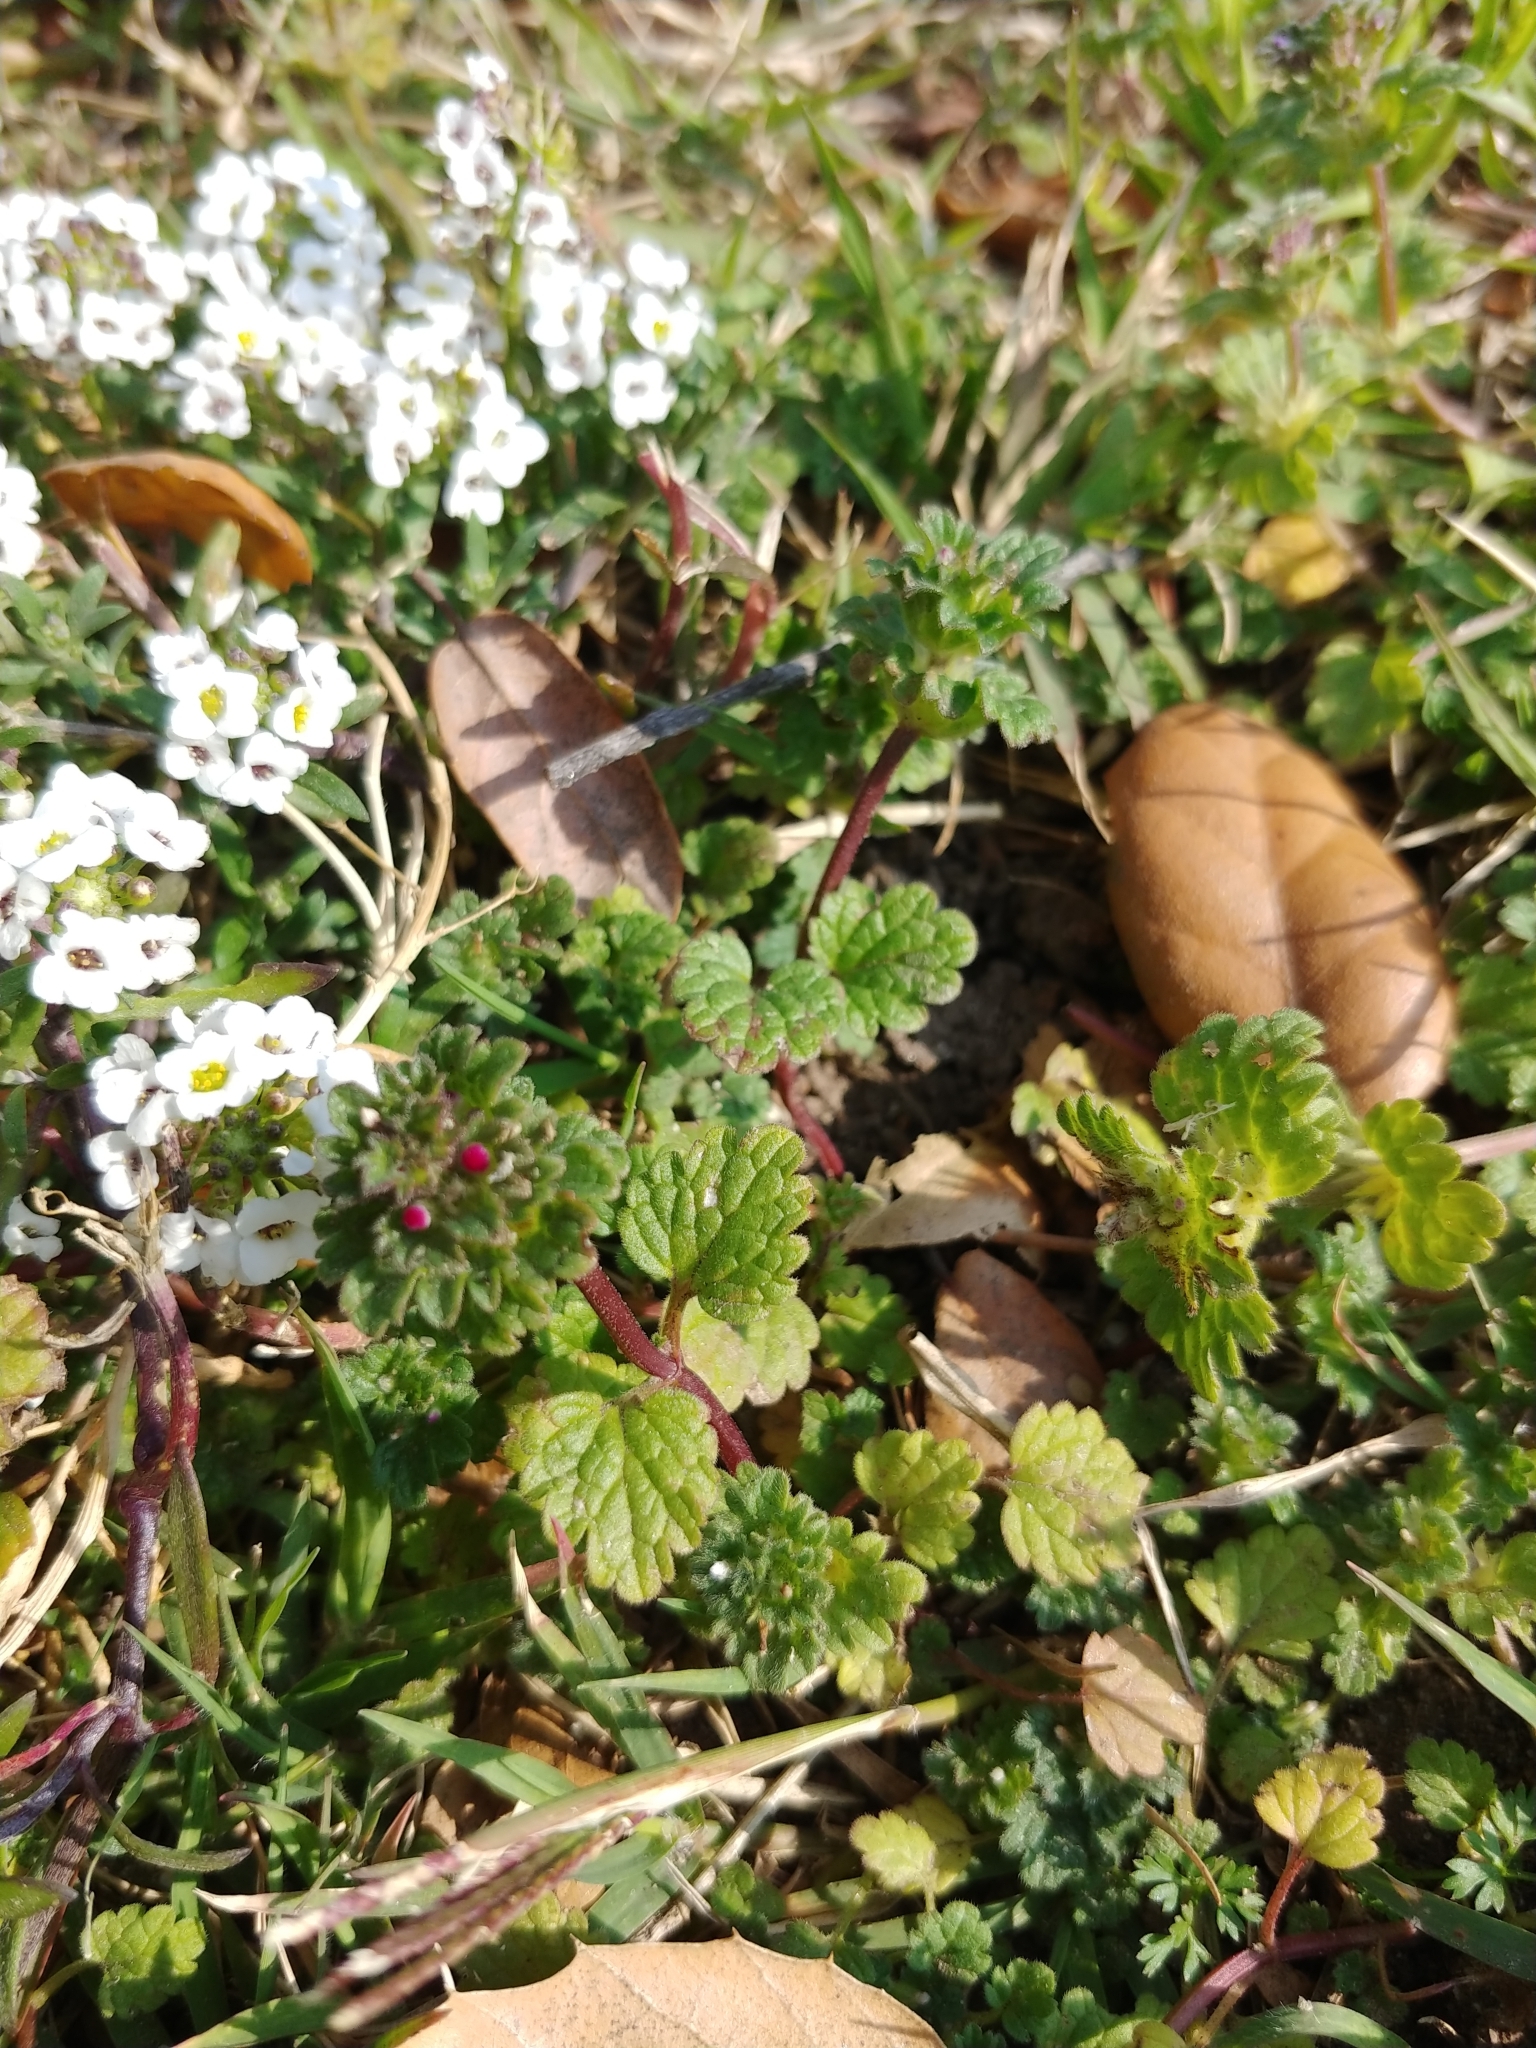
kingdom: Plantae
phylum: Tracheophyta
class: Magnoliopsida
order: Lamiales
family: Lamiaceae
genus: Lamium
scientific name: Lamium amplexicaule
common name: Henbit dead-nettle
